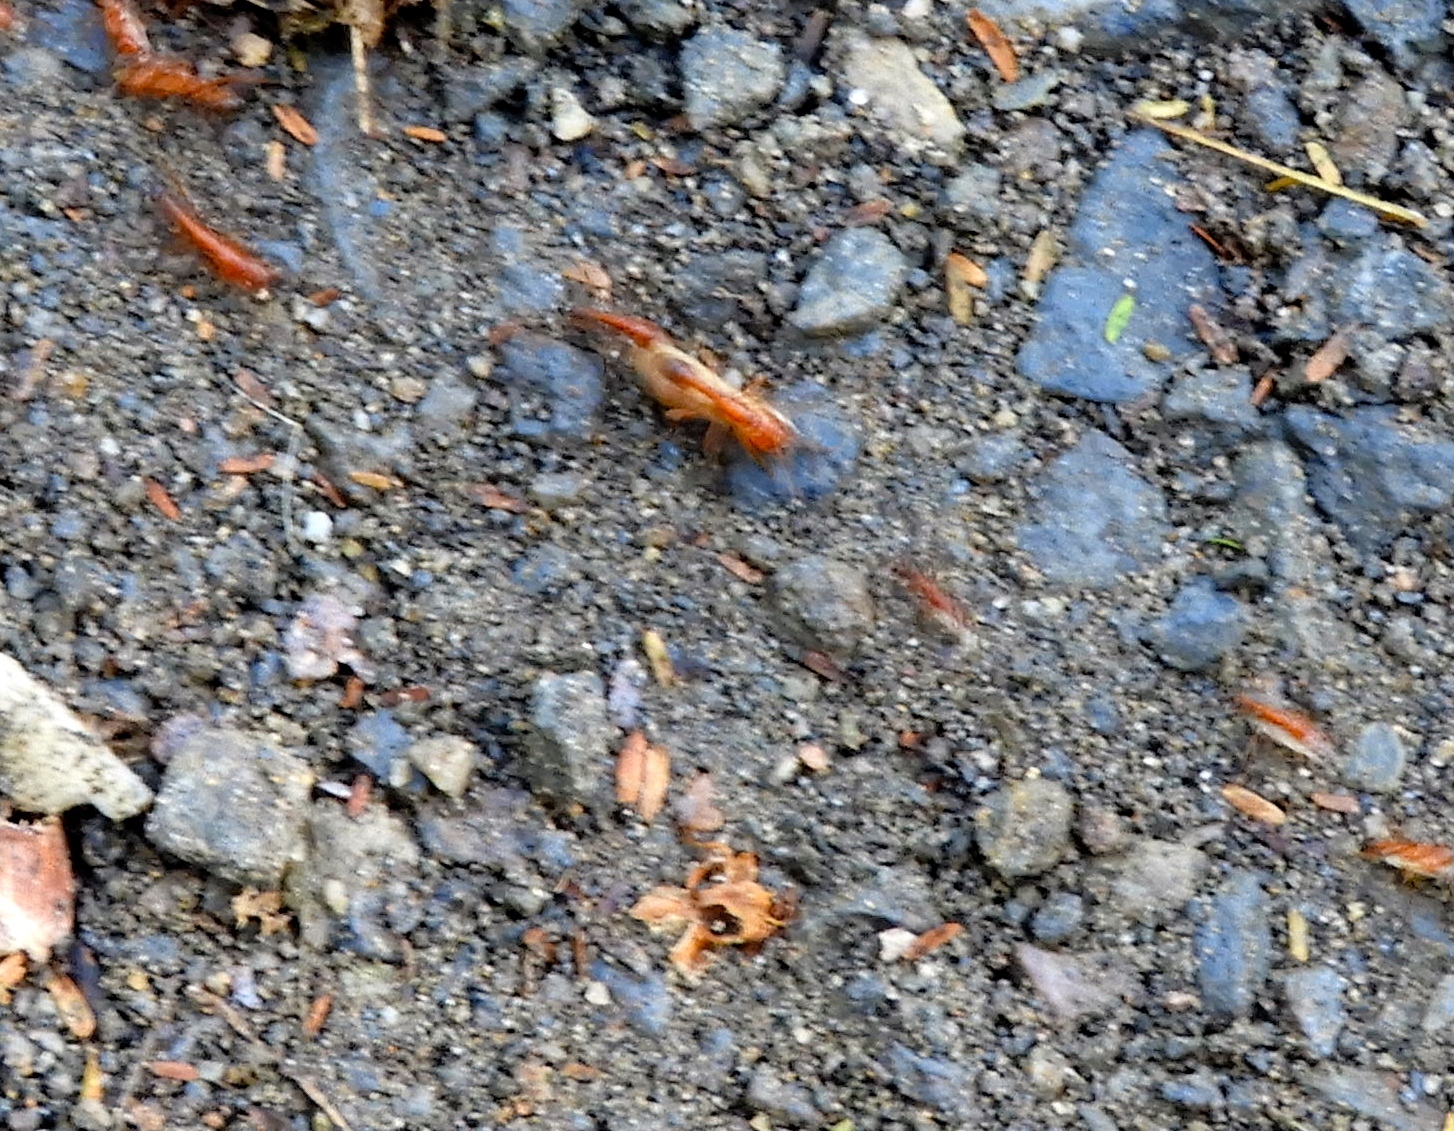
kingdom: Animalia
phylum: Arthropoda
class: Insecta
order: Hymenoptera
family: Formicidae
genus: Neivamyrmex
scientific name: Neivamyrmex graciellae
